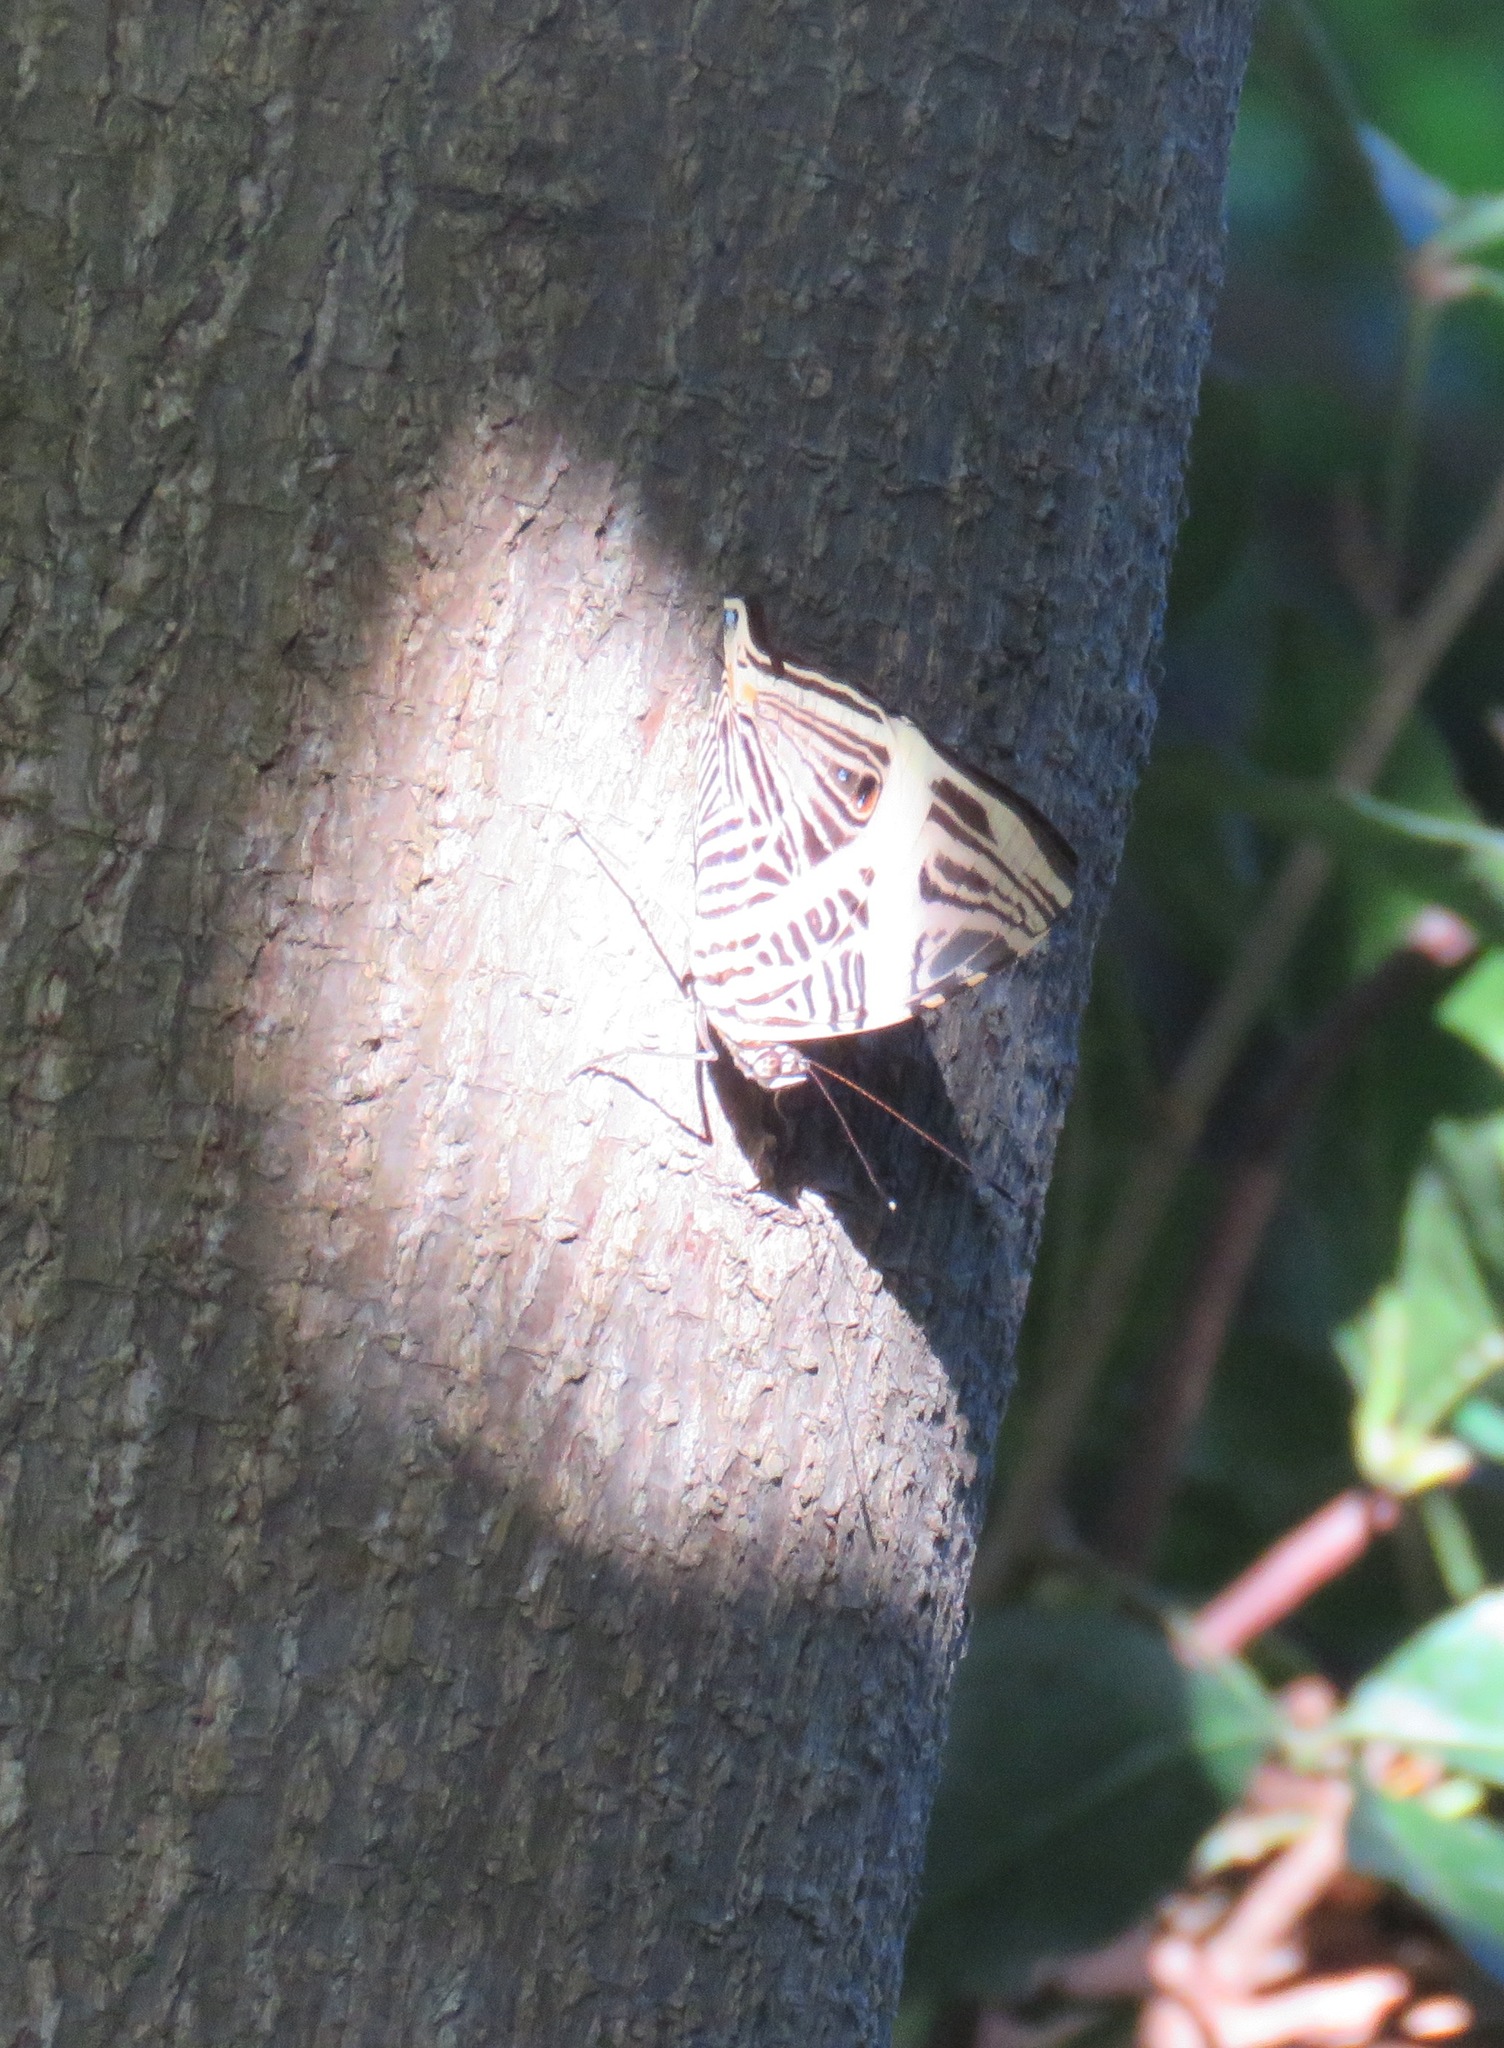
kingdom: Animalia
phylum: Arthropoda
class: Insecta
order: Lepidoptera
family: Nymphalidae
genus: Colobura
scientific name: Colobura dirce
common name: Dirce beauty
